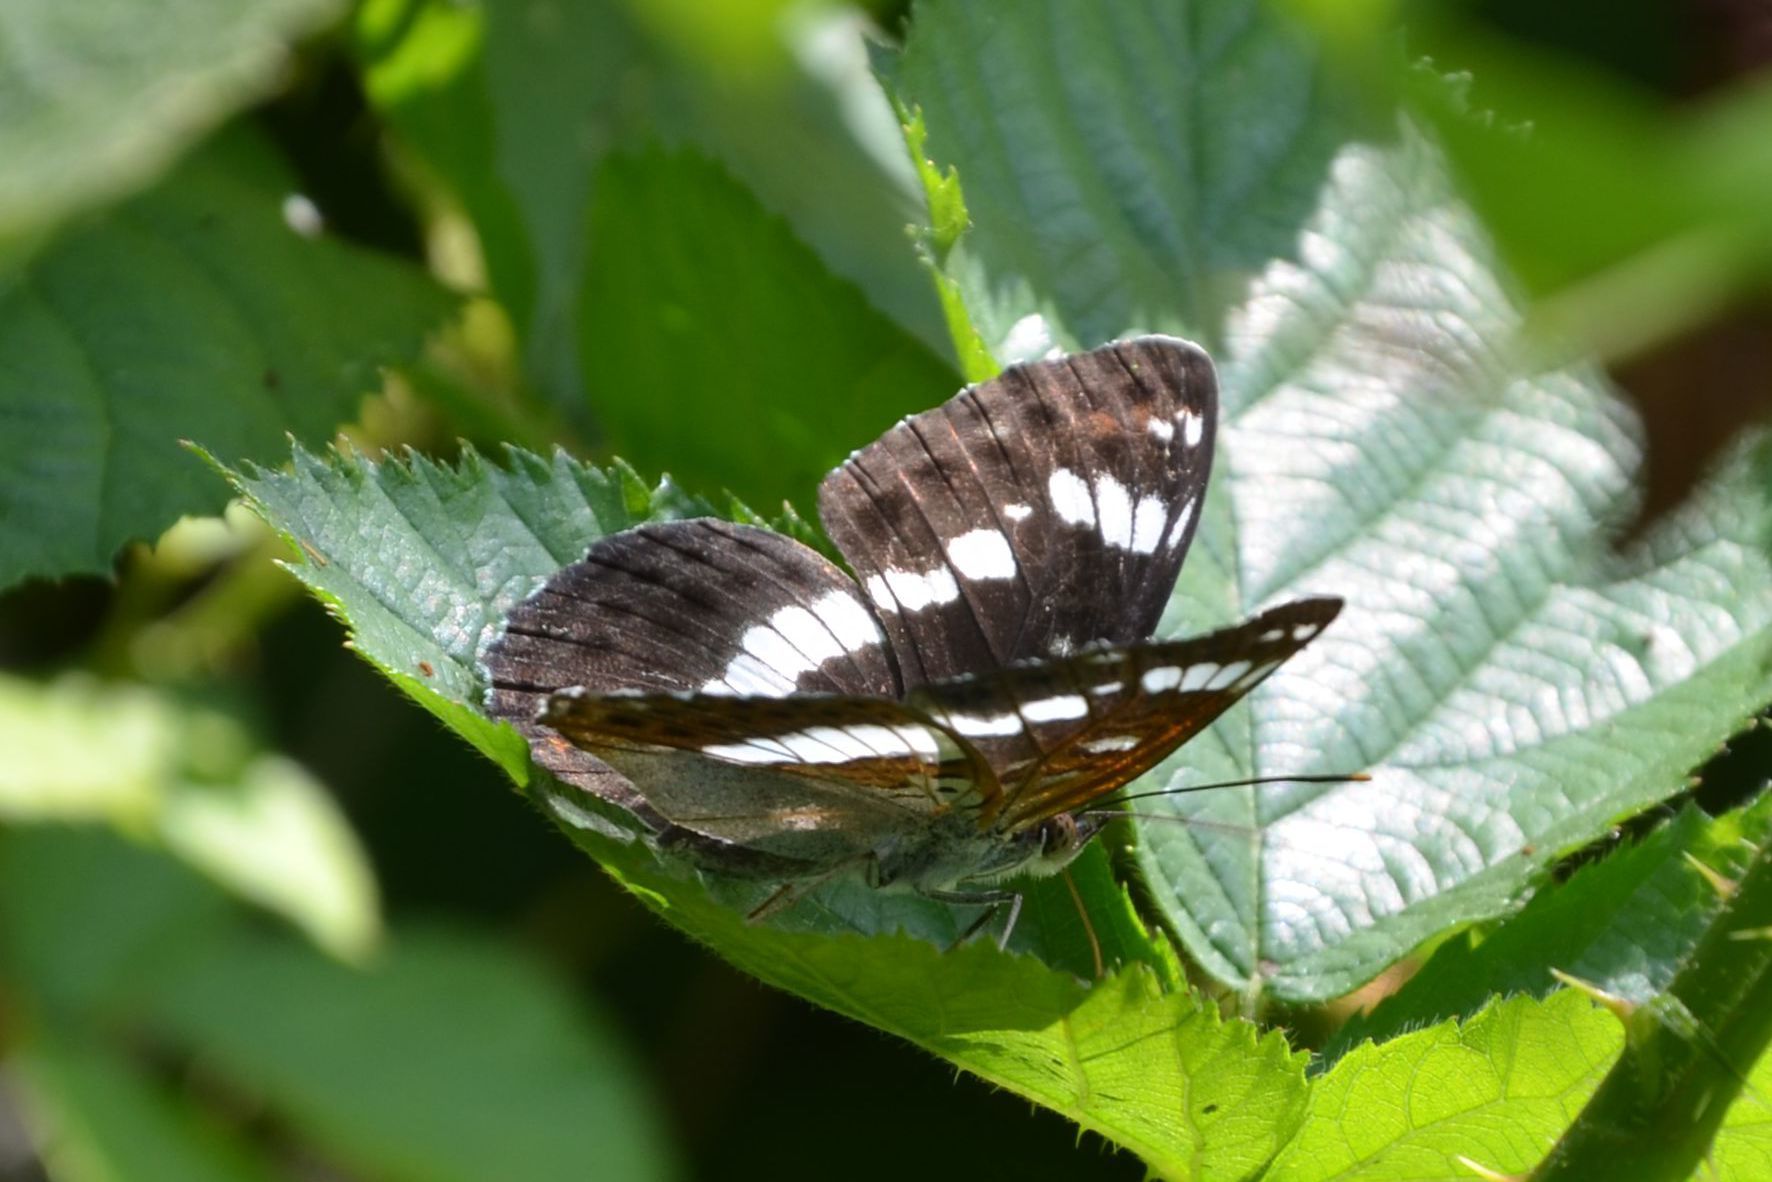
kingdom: Animalia
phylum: Arthropoda
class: Insecta
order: Lepidoptera
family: Nymphalidae
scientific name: Nymphalidae
